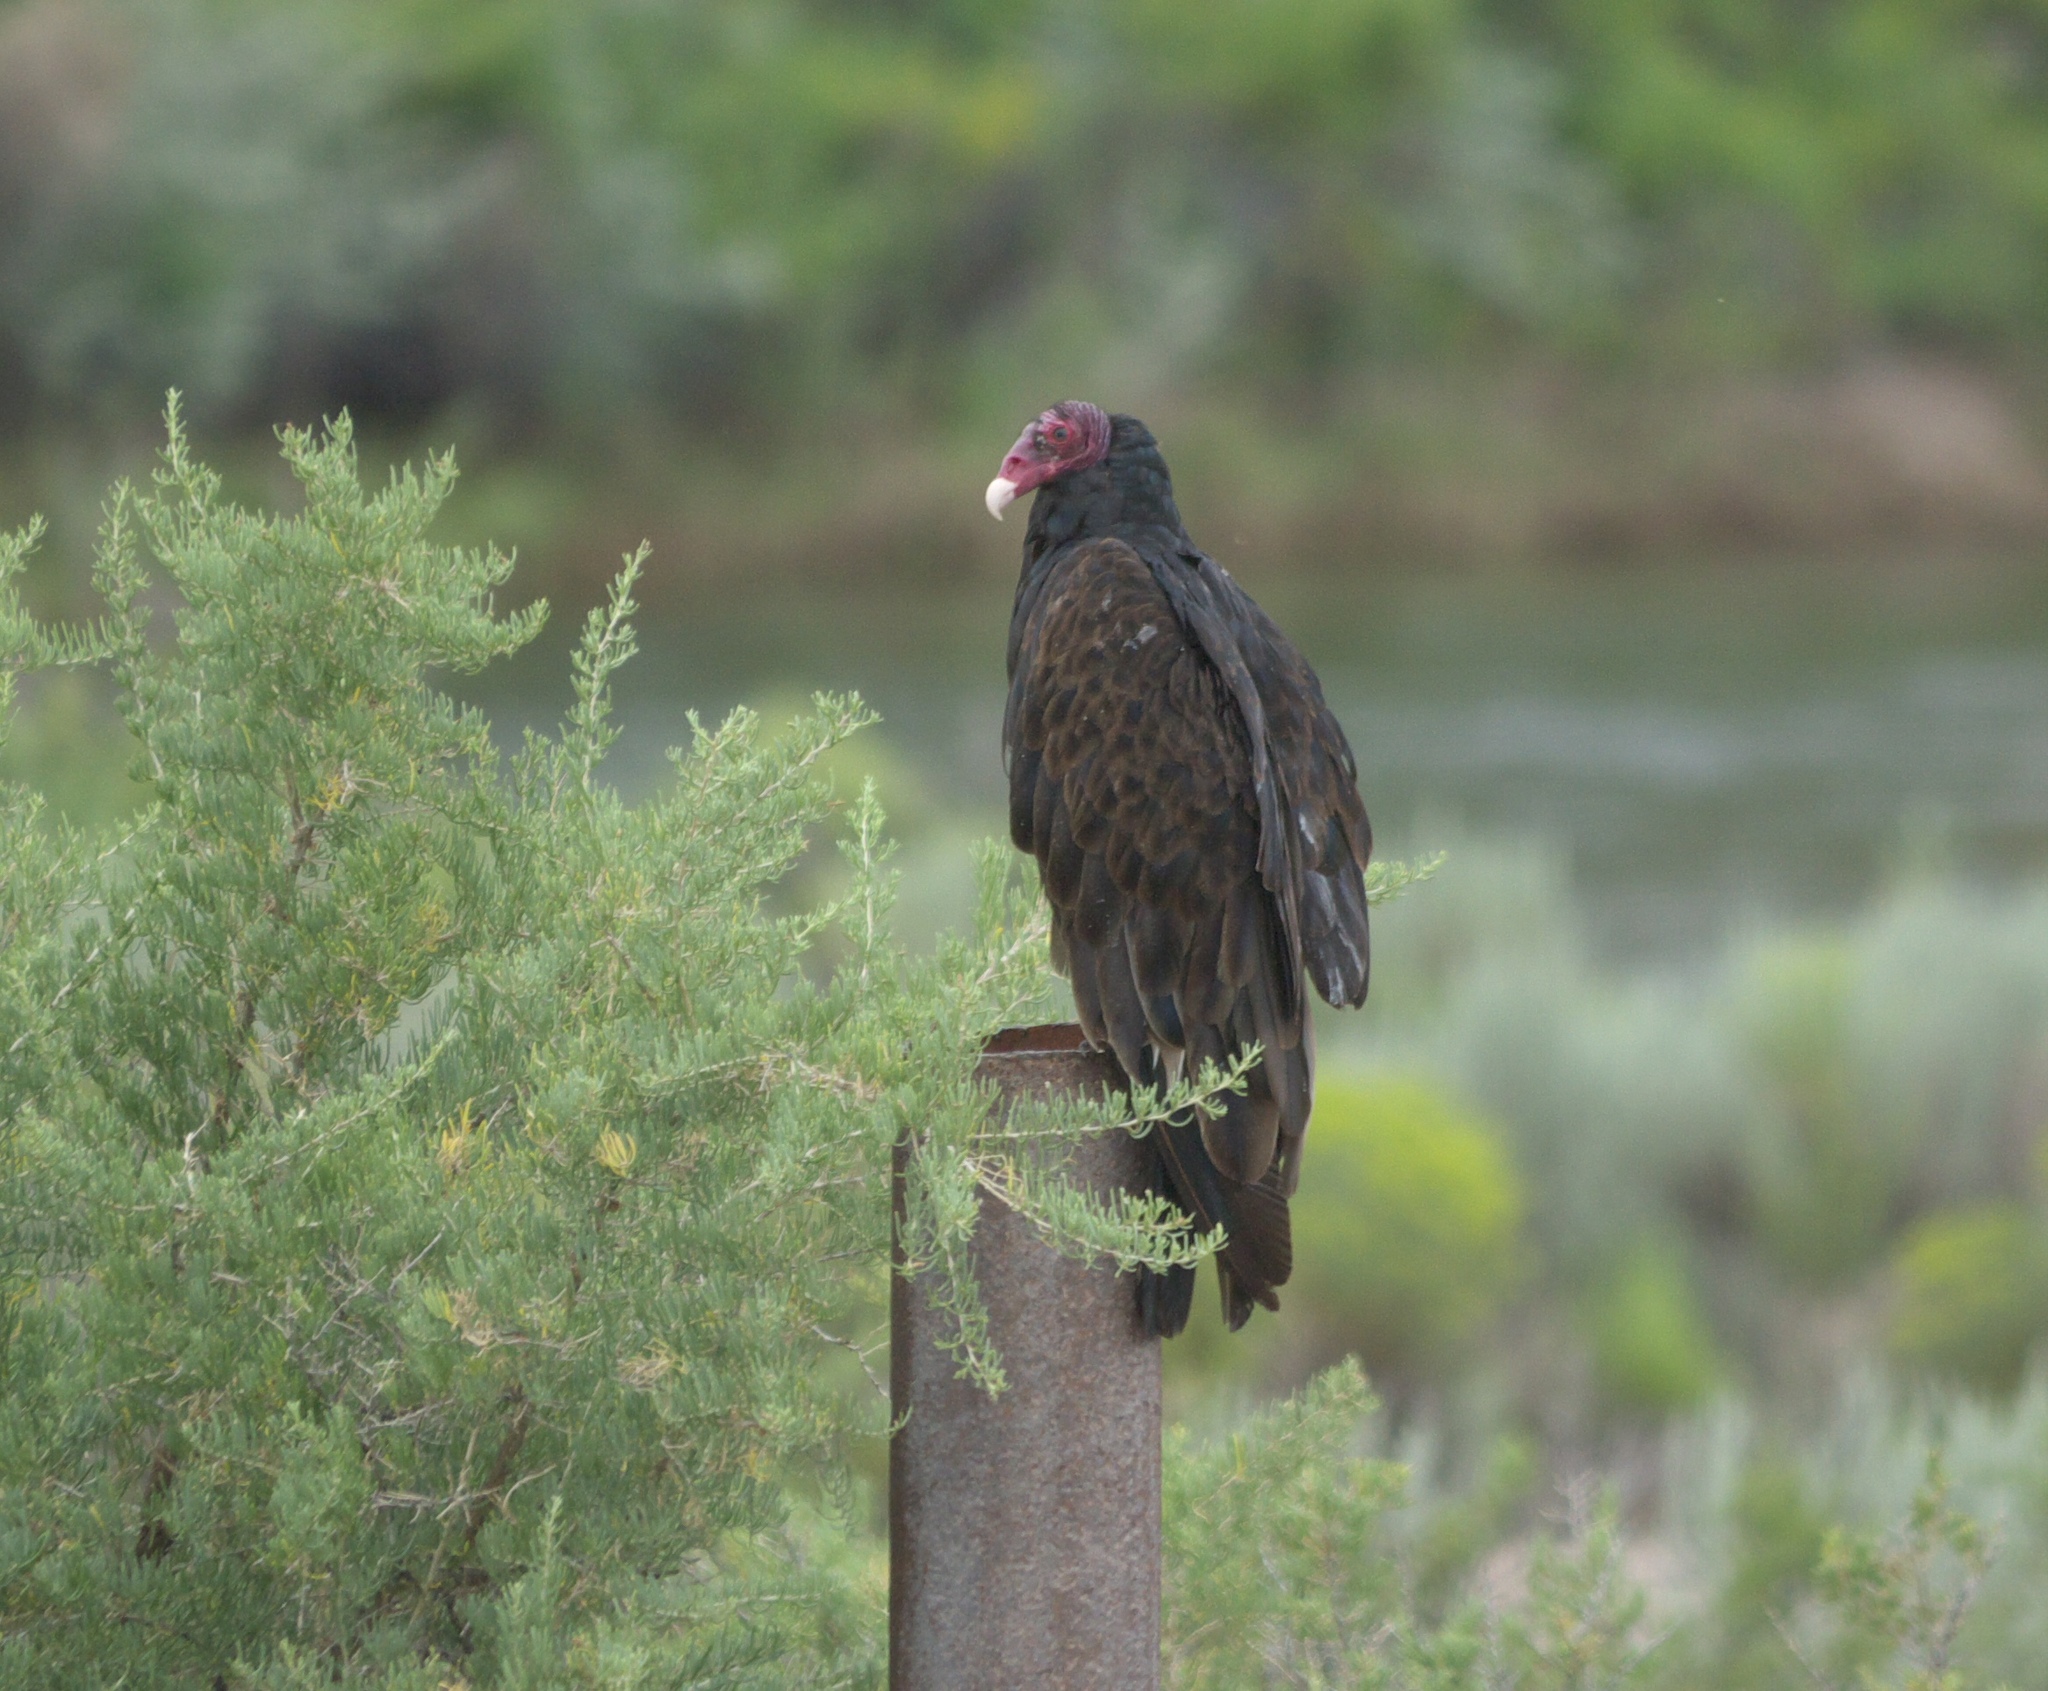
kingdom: Animalia
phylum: Chordata
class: Aves
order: Accipitriformes
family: Cathartidae
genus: Cathartes
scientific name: Cathartes aura
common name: Turkey vulture
